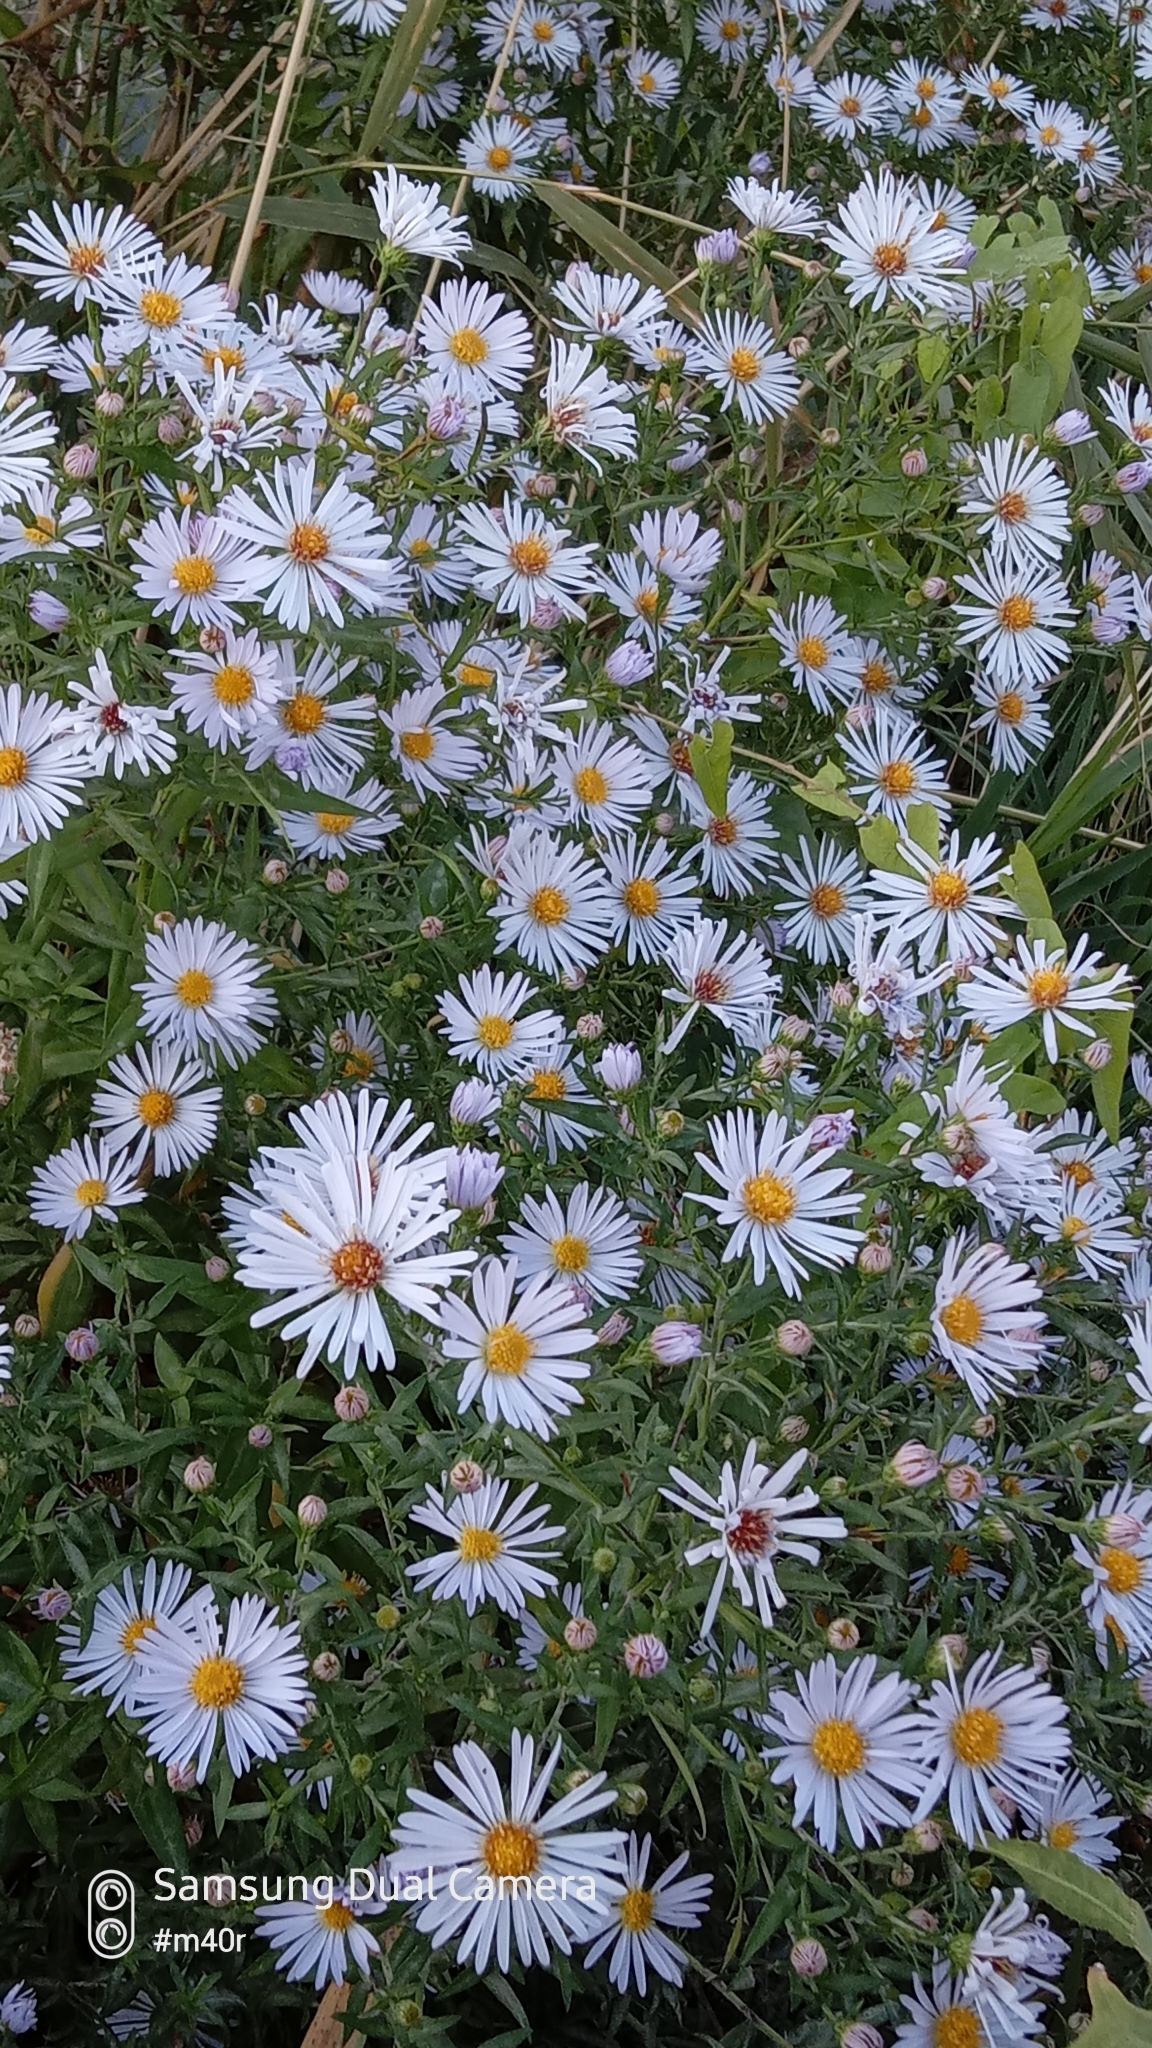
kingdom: Plantae
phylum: Tracheophyta
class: Magnoliopsida
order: Asterales
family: Asteraceae
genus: Heteropappus
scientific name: Heteropappus altaicus
